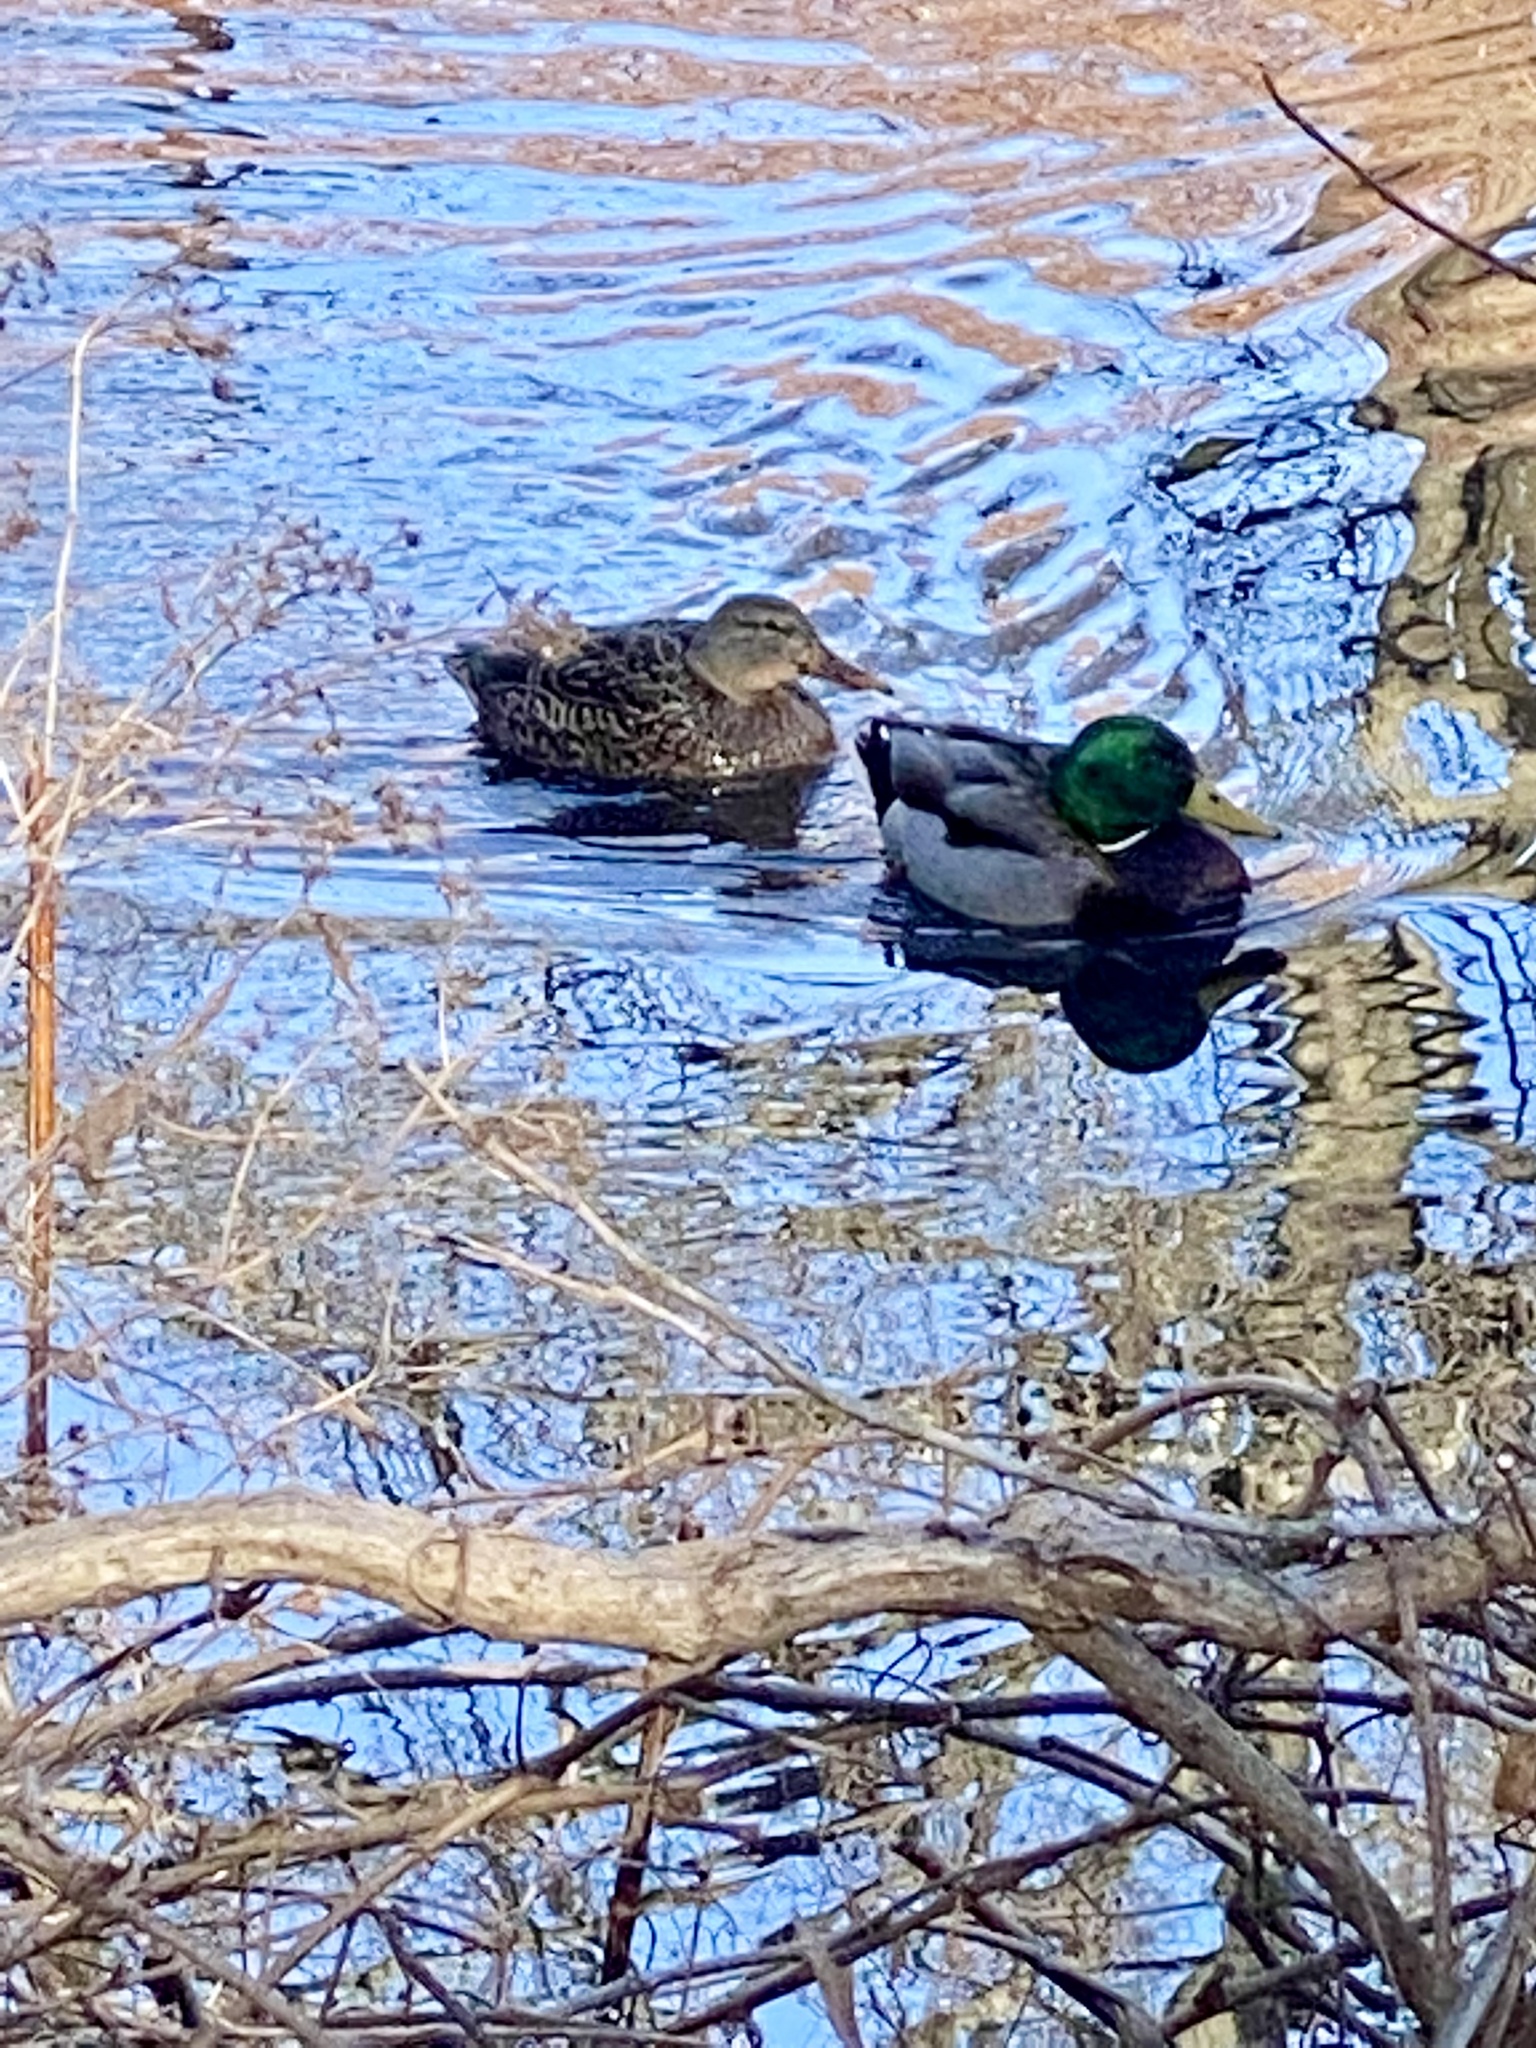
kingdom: Animalia
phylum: Chordata
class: Aves
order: Anseriformes
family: Anatidae
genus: Anas
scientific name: Anas platyrhynchos
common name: Mallard
